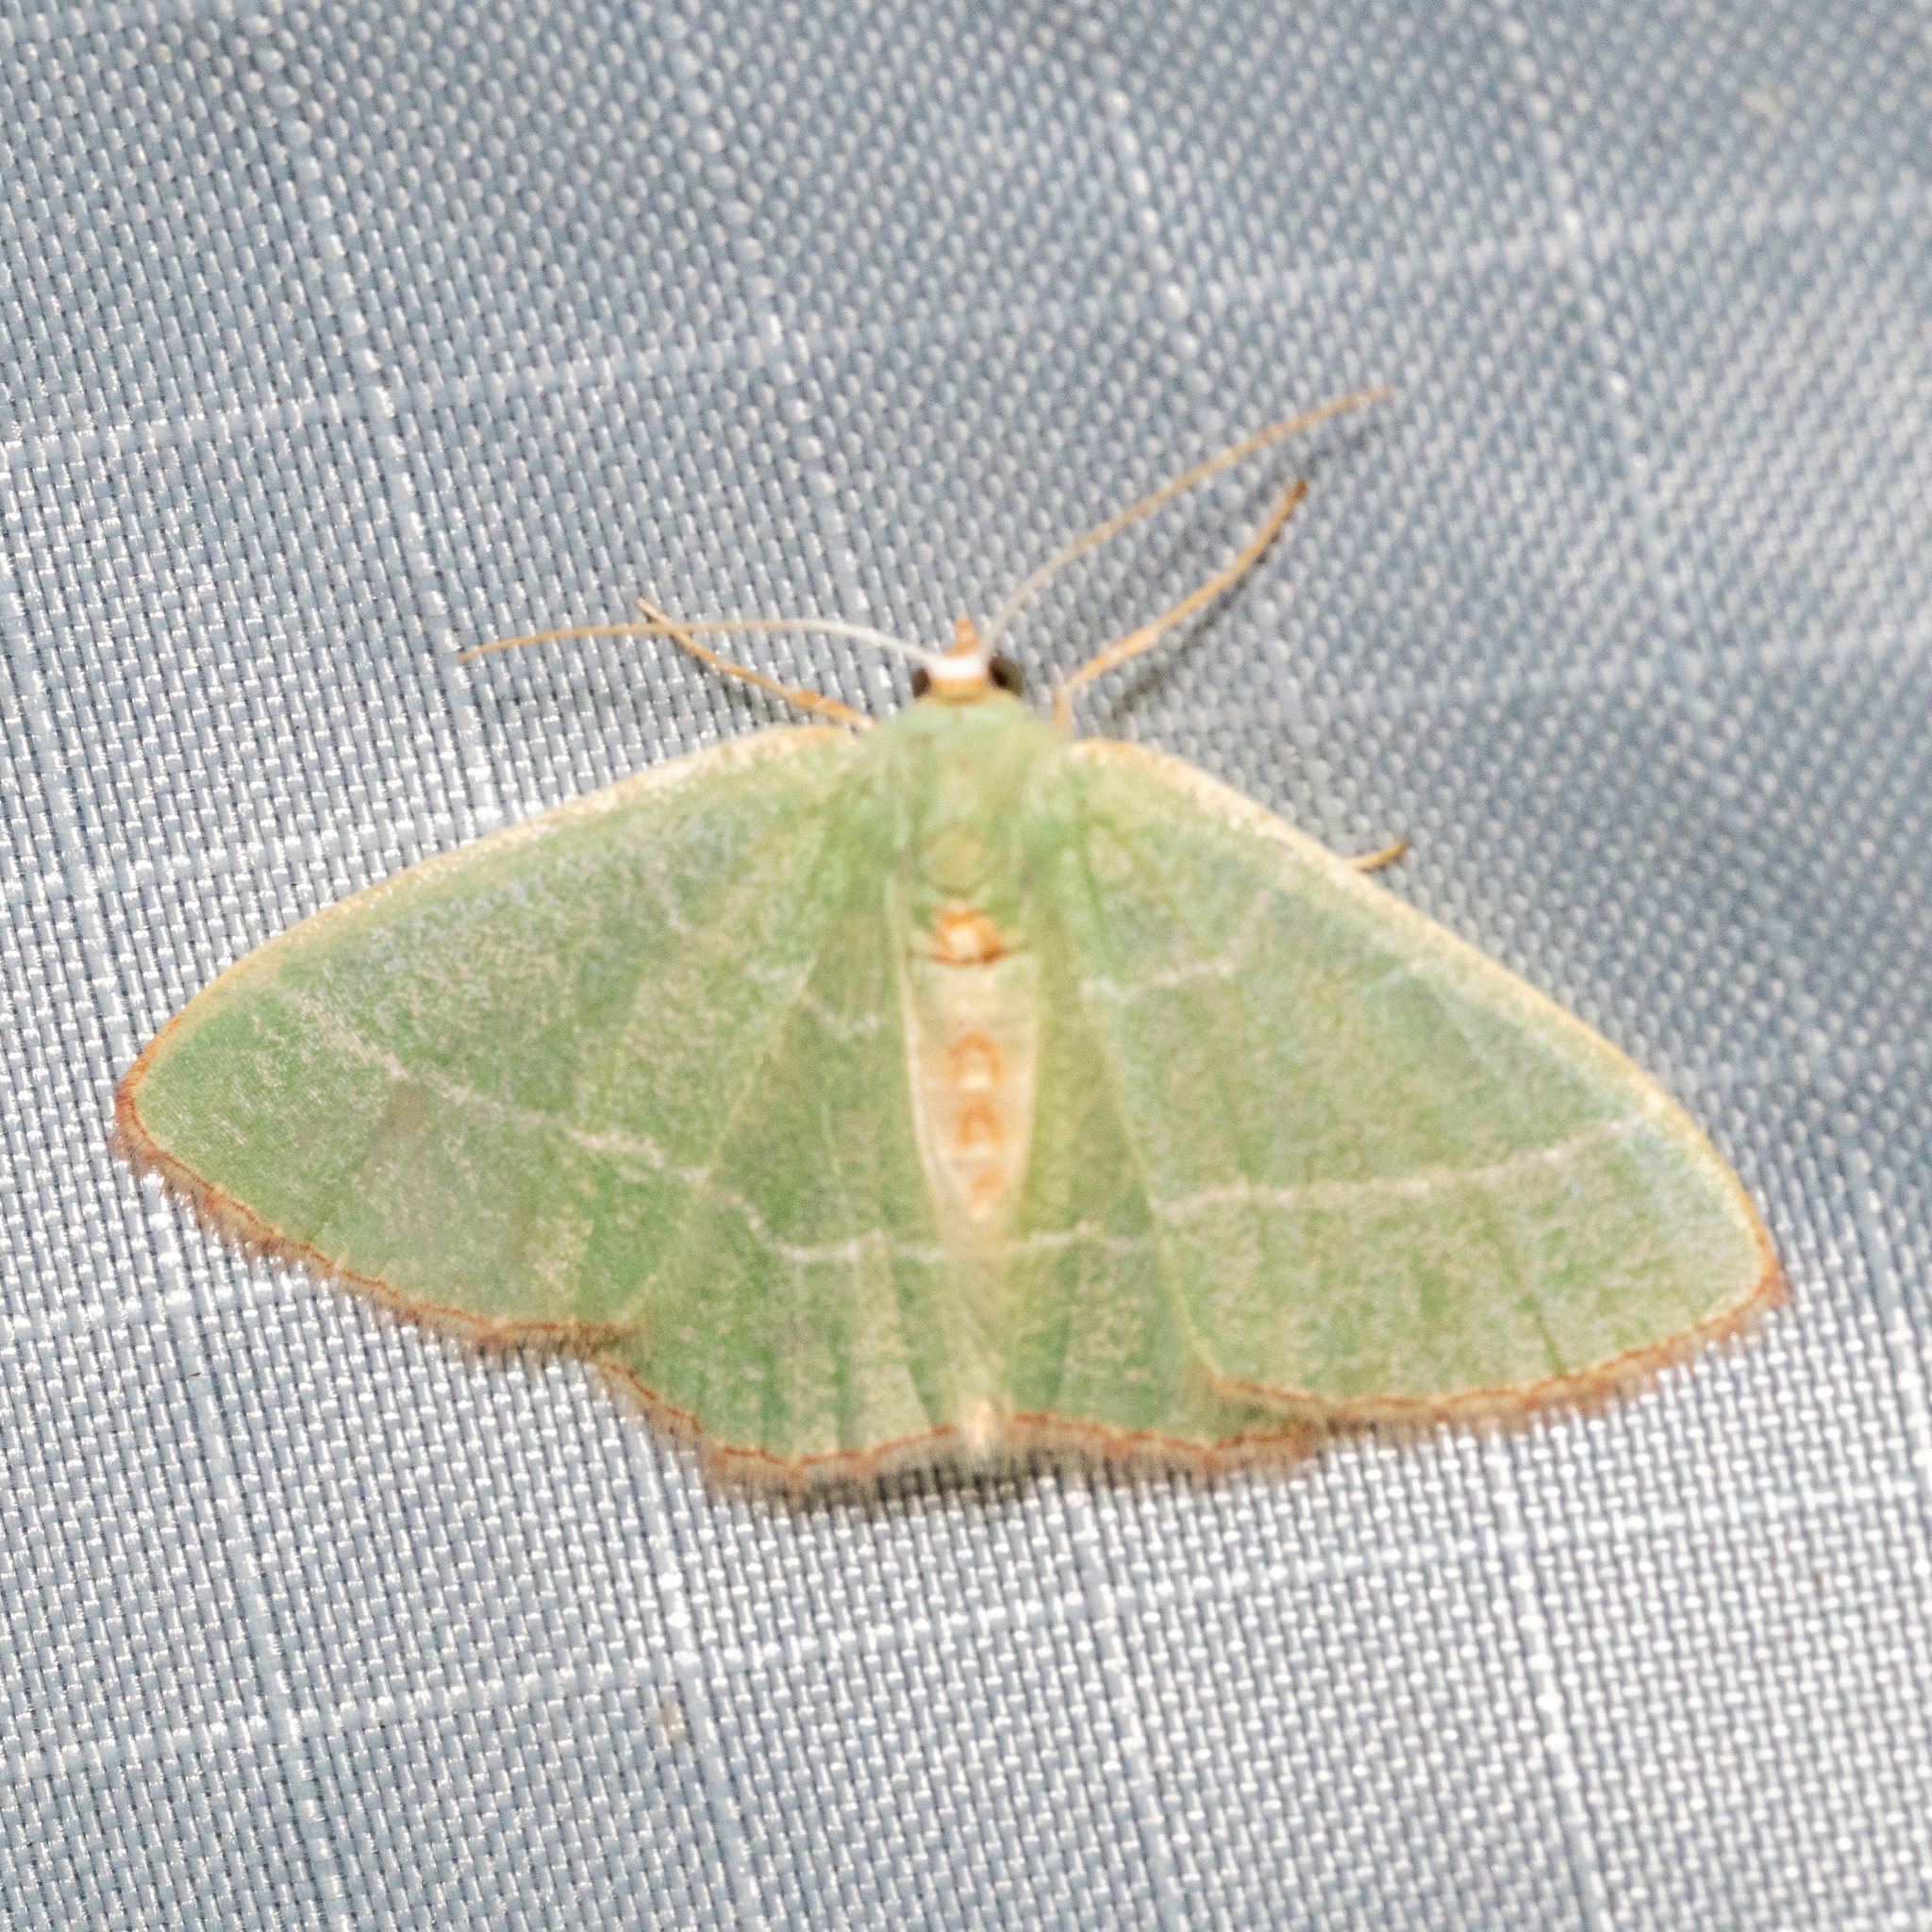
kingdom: Animalia
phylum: Arthropoda
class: Insecta
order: Lepidoptera
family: Geometridae
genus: Nemoria
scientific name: Nemoria bistriaria
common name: Red-fringed emerald
